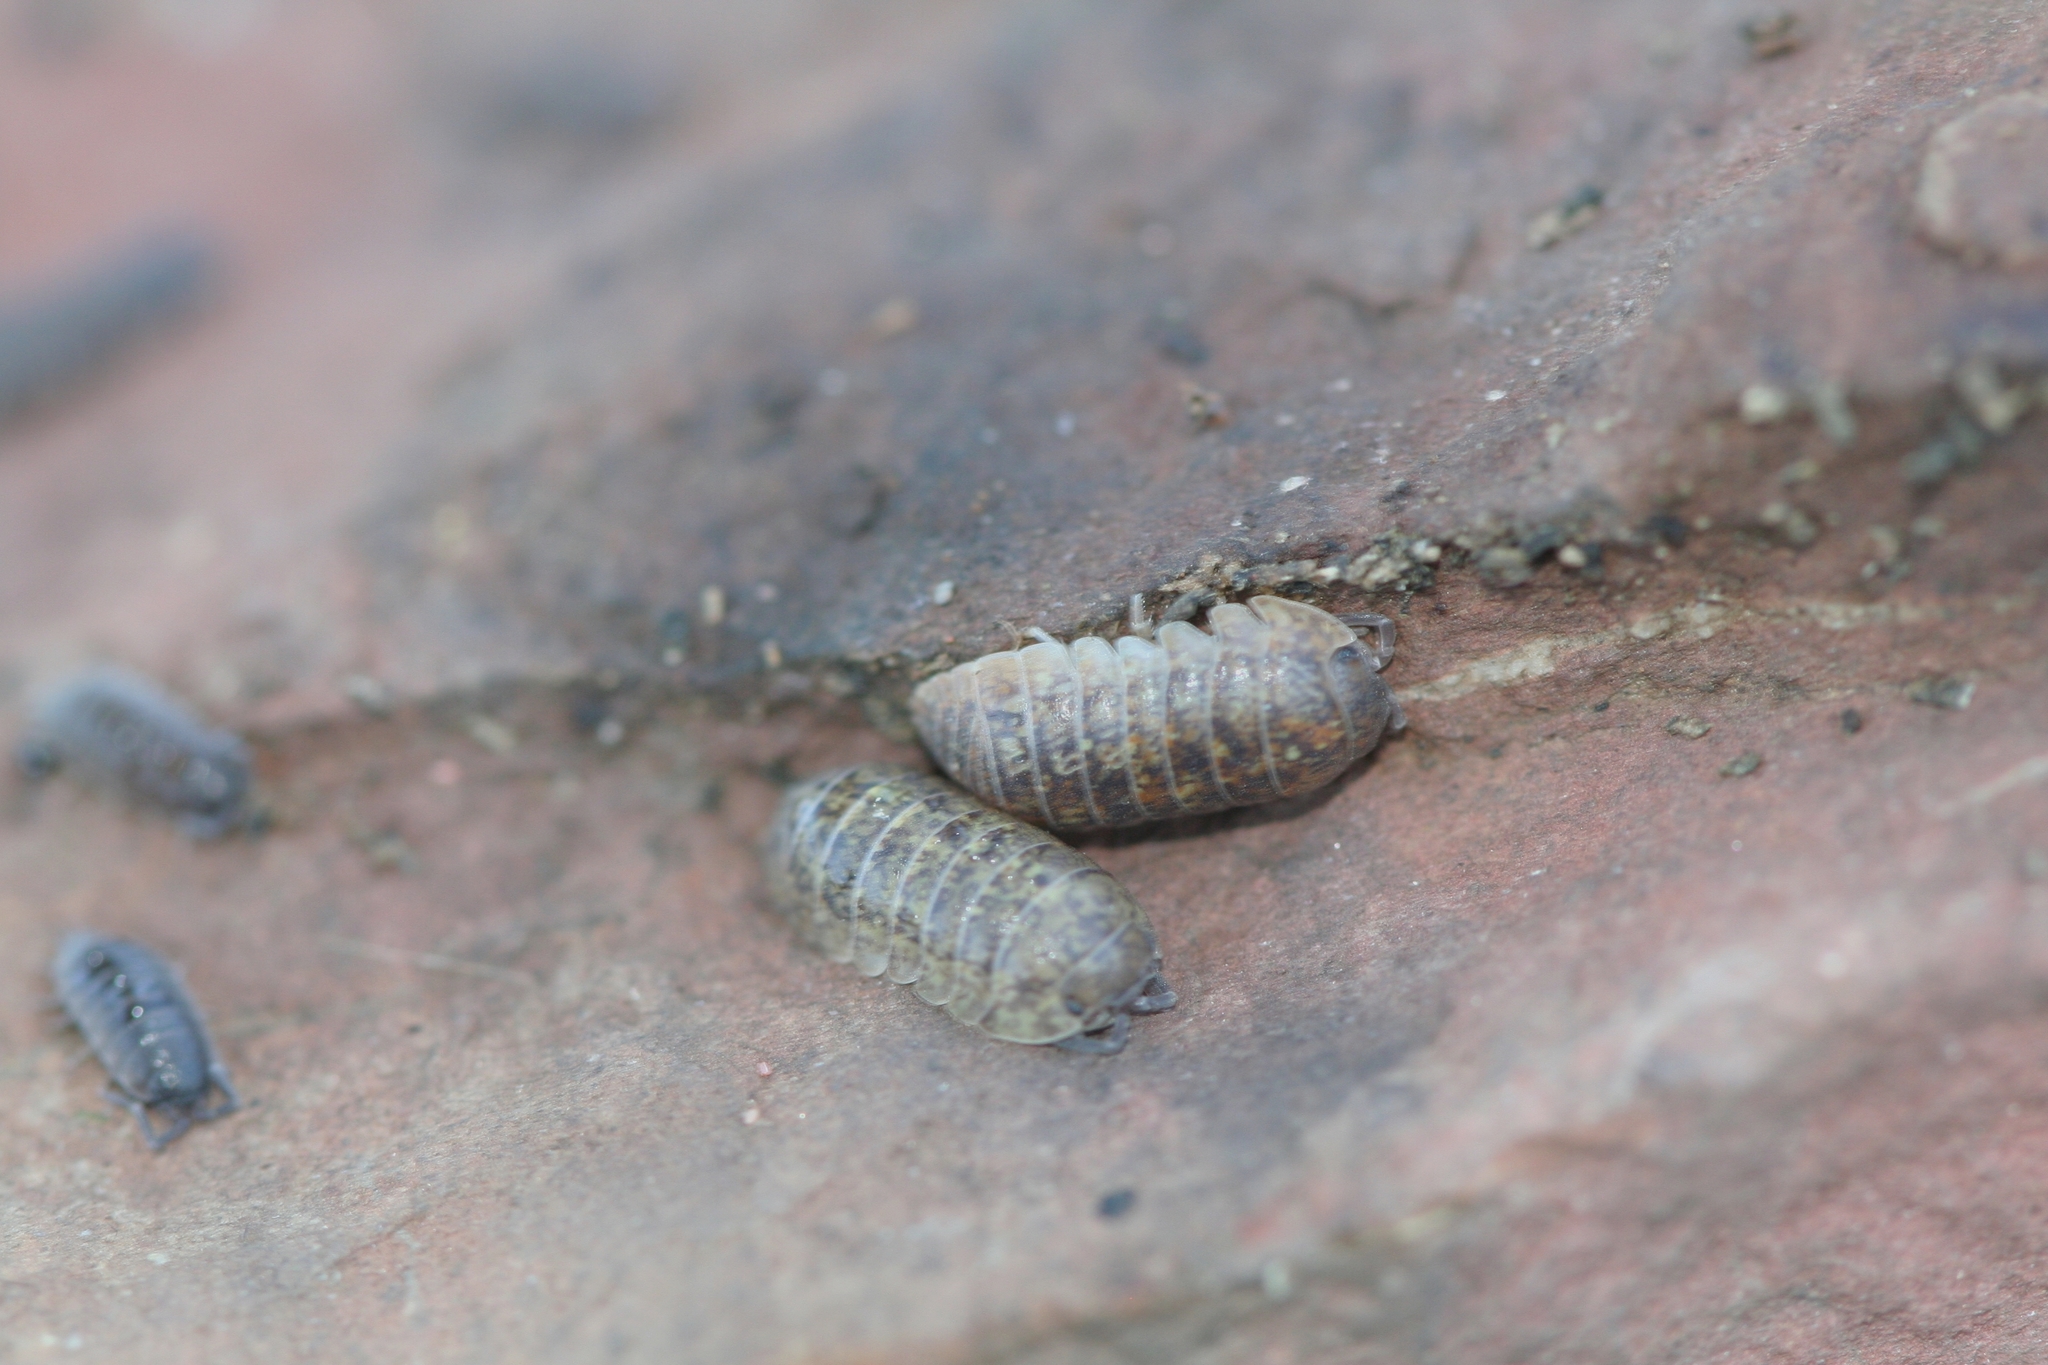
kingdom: Animalia
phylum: Arthropoda
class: Malacostraca
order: Isopoda
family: Armadillidiidae
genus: Armadillidium
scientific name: Armadillidium marmoratum
